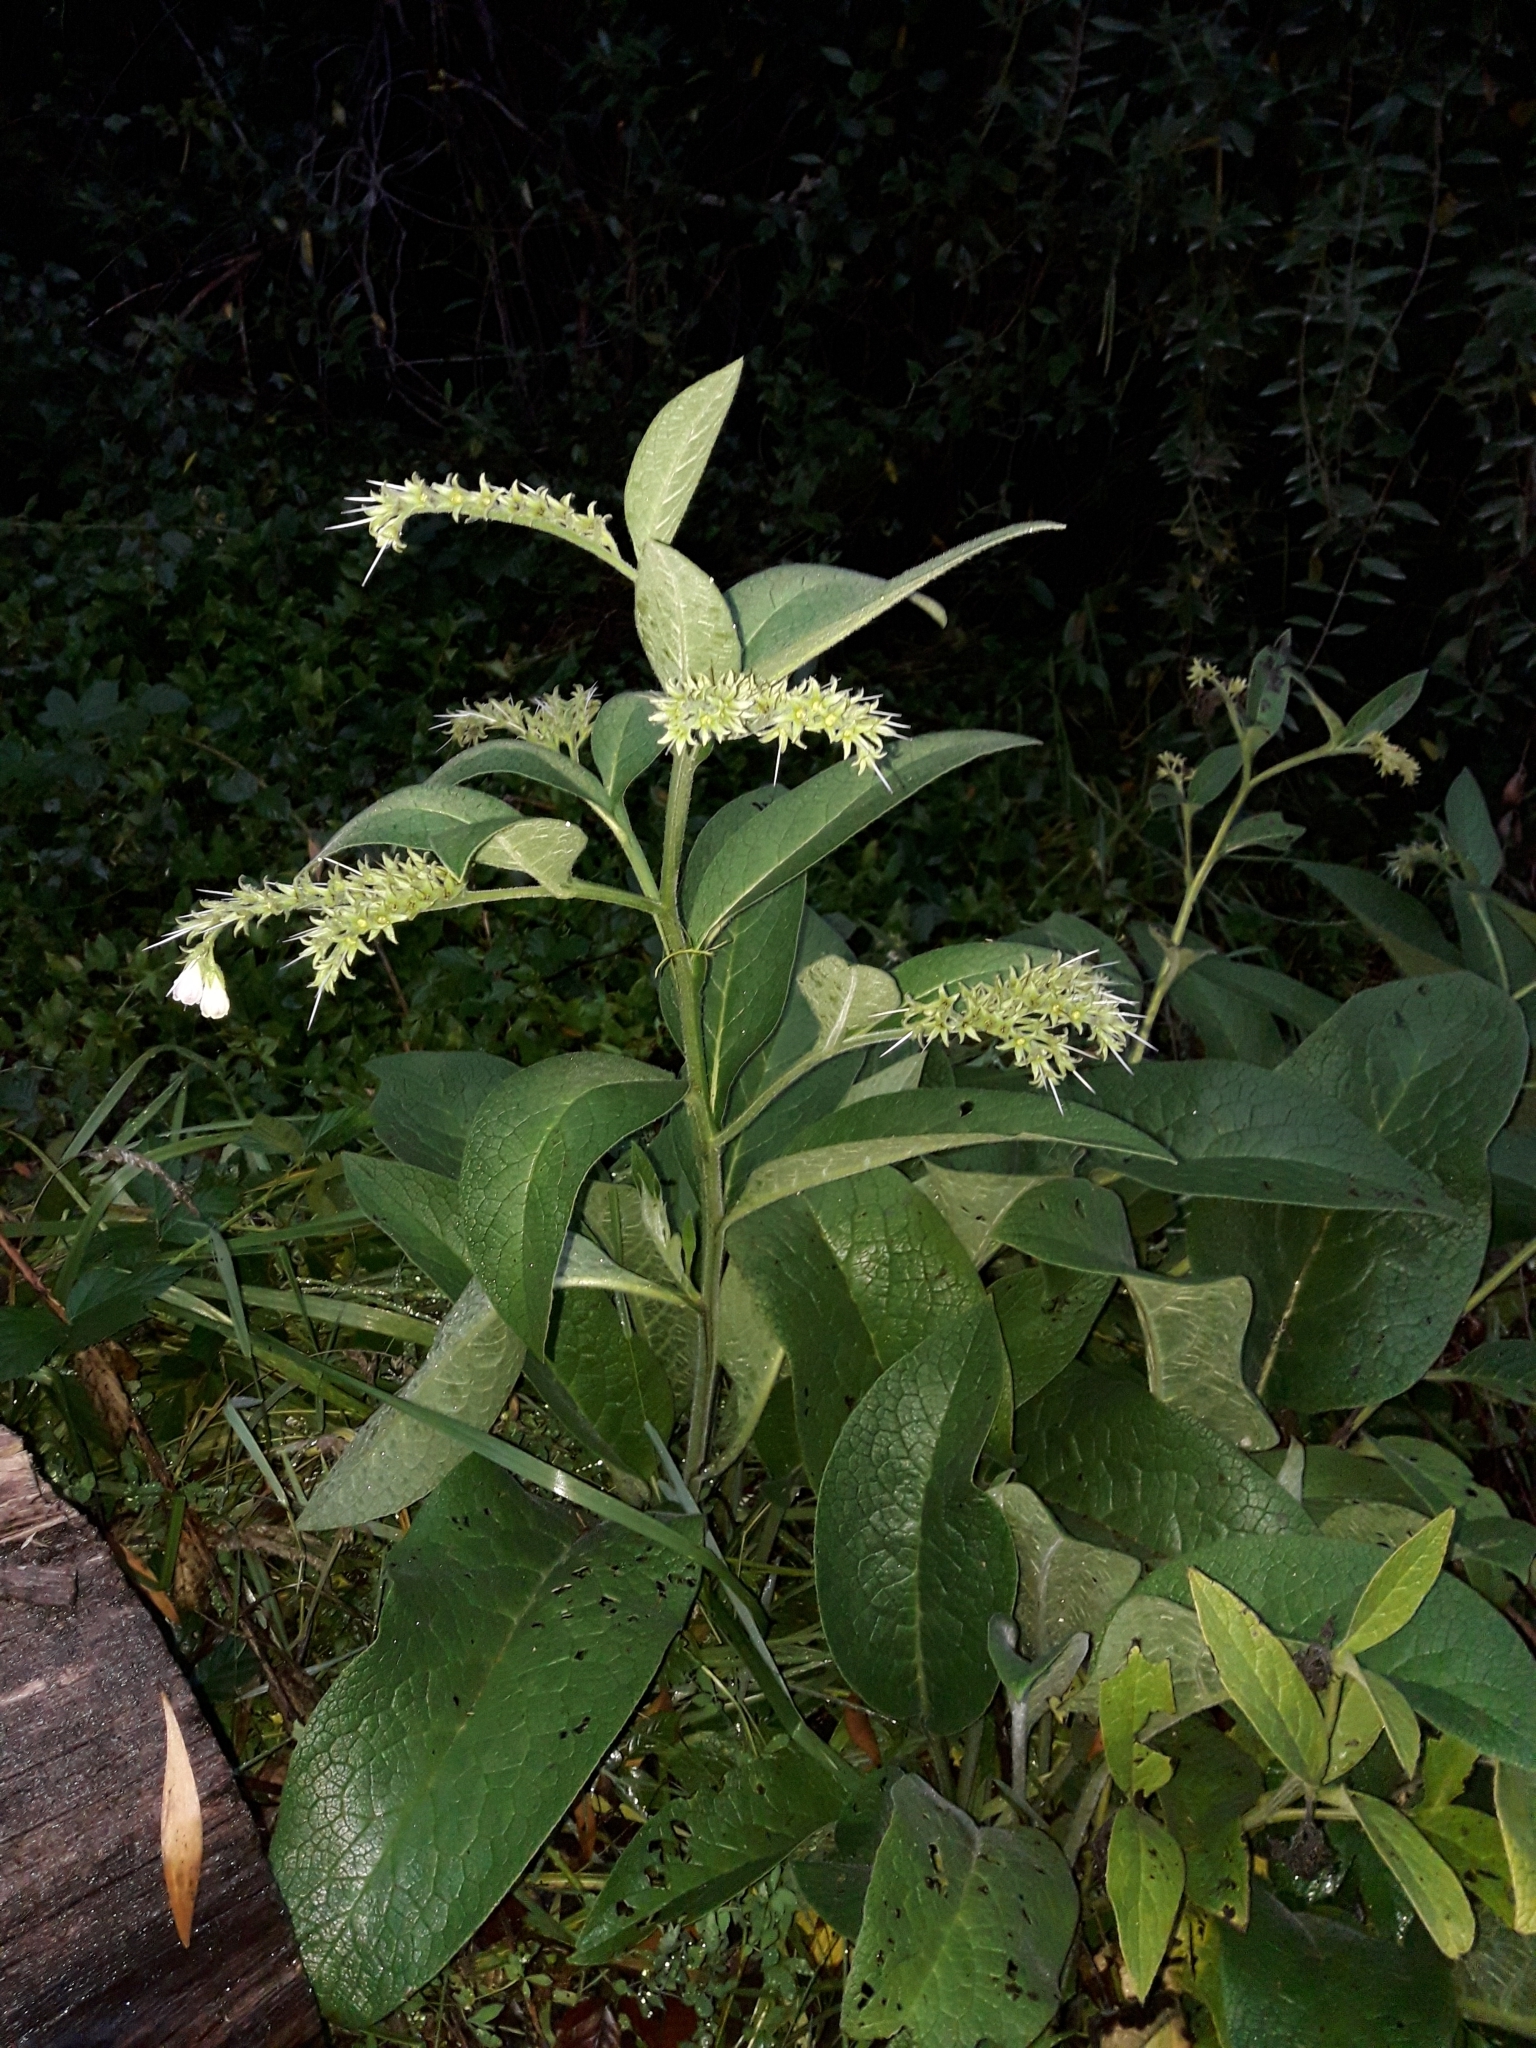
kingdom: Plantae
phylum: Tracheophyta
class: Magnoliopsida
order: Boraginales
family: Boraginaceae
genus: Symphytum
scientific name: Symphytum officinale
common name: Common comfrey
